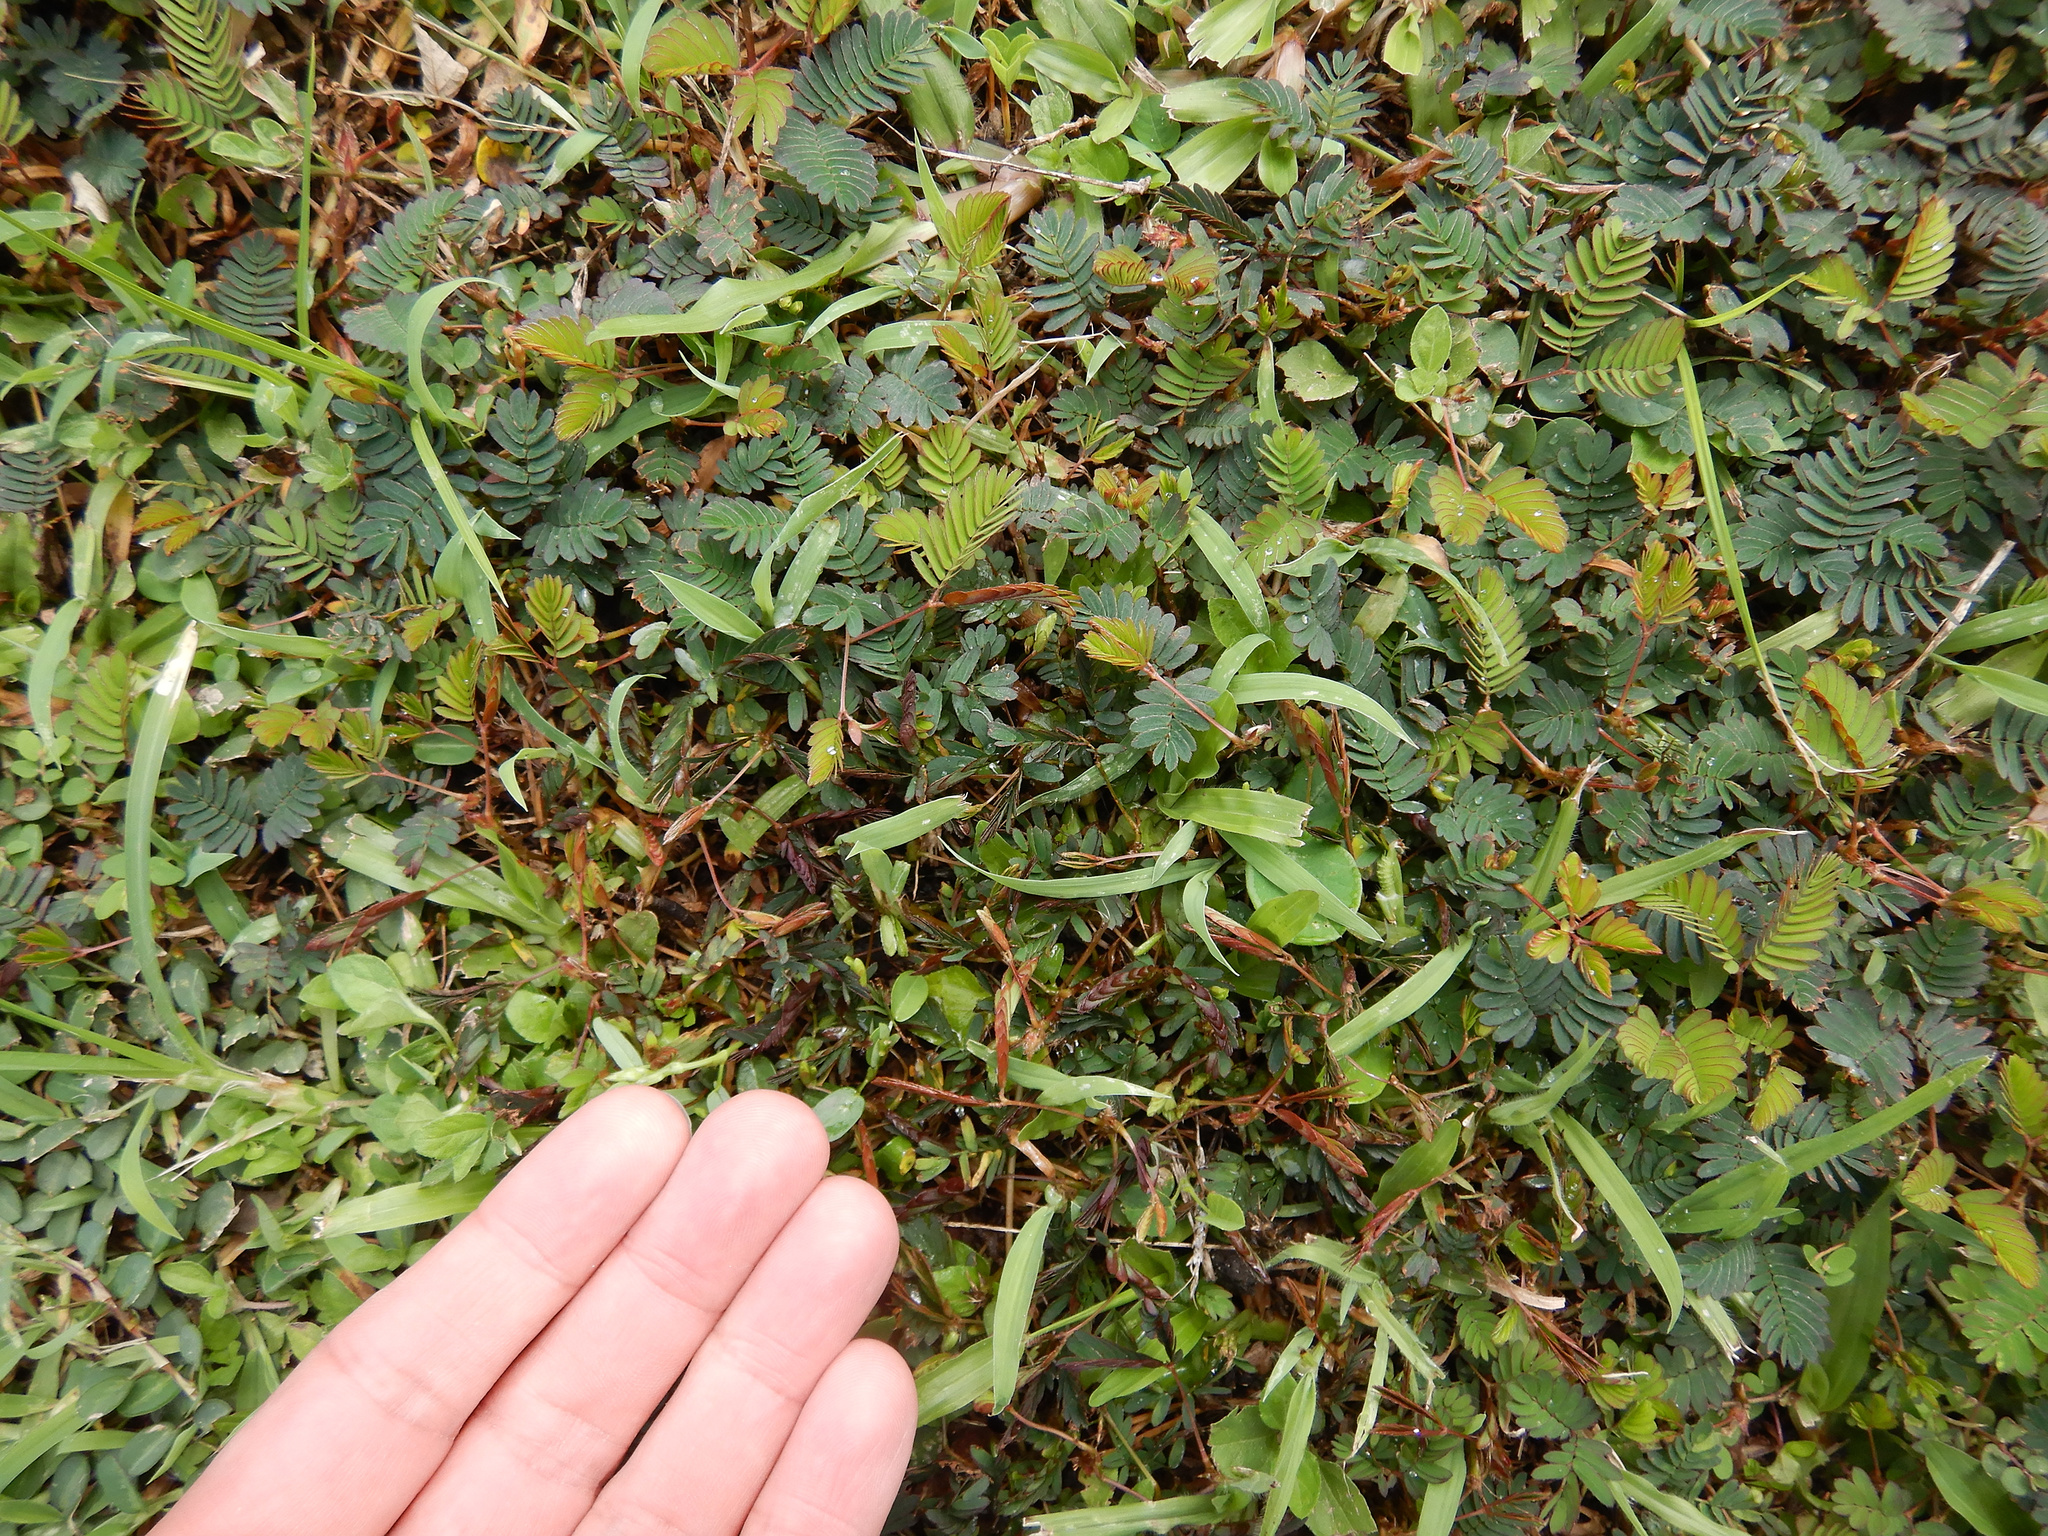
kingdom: Plantae
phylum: Tracheophyta
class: Magnoliopsida
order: Fabales
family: Fabaceae
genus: Mimosa
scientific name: Mimosa pudica
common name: Sensitive plant
